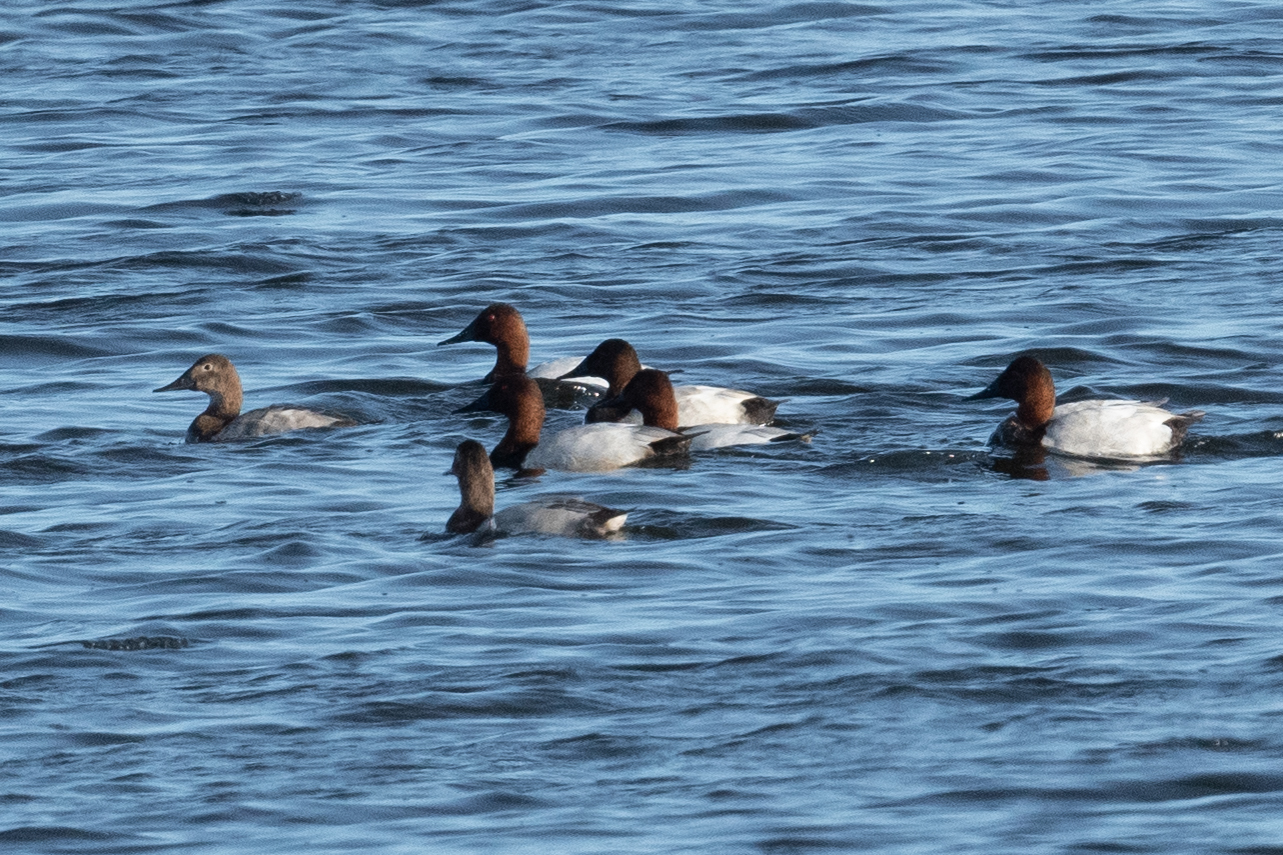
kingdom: Animalia
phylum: Chordata
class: Aves
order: Anseriformes
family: Anatidae
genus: Aythya
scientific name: Aythya valisineria
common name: Canvasback
